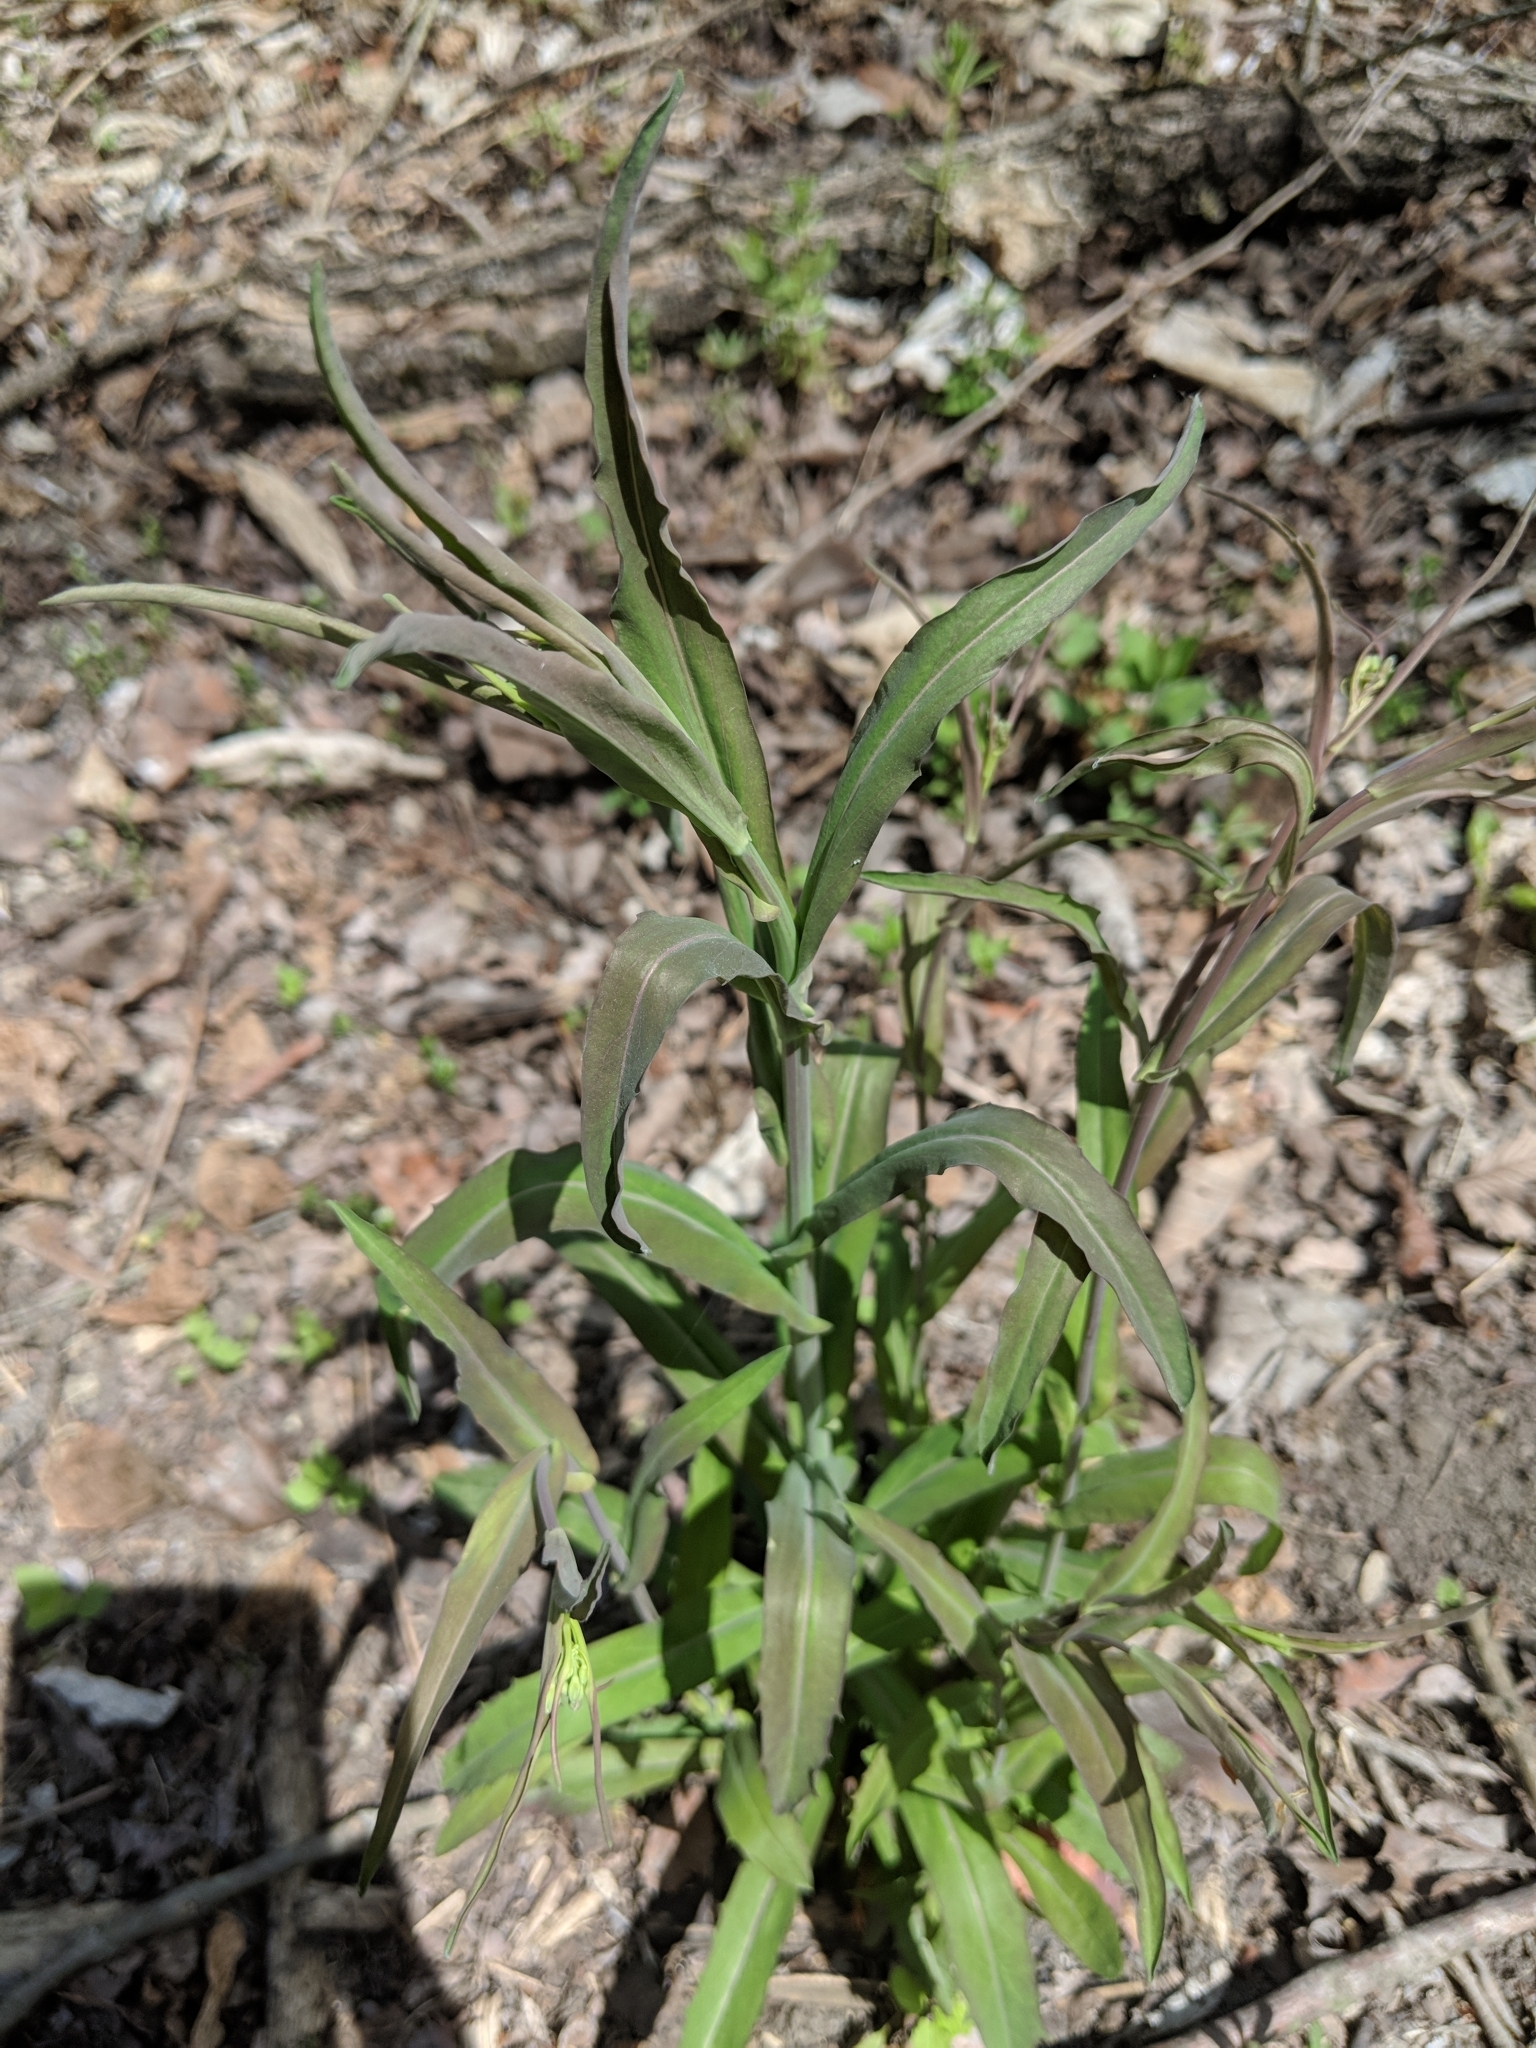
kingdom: Plantae
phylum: Tracheophyta
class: Magnoliopsida
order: Brassicales
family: Brassicaceae
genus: Borodinia
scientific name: Borodinia laevigata
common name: Smooth rockcress
